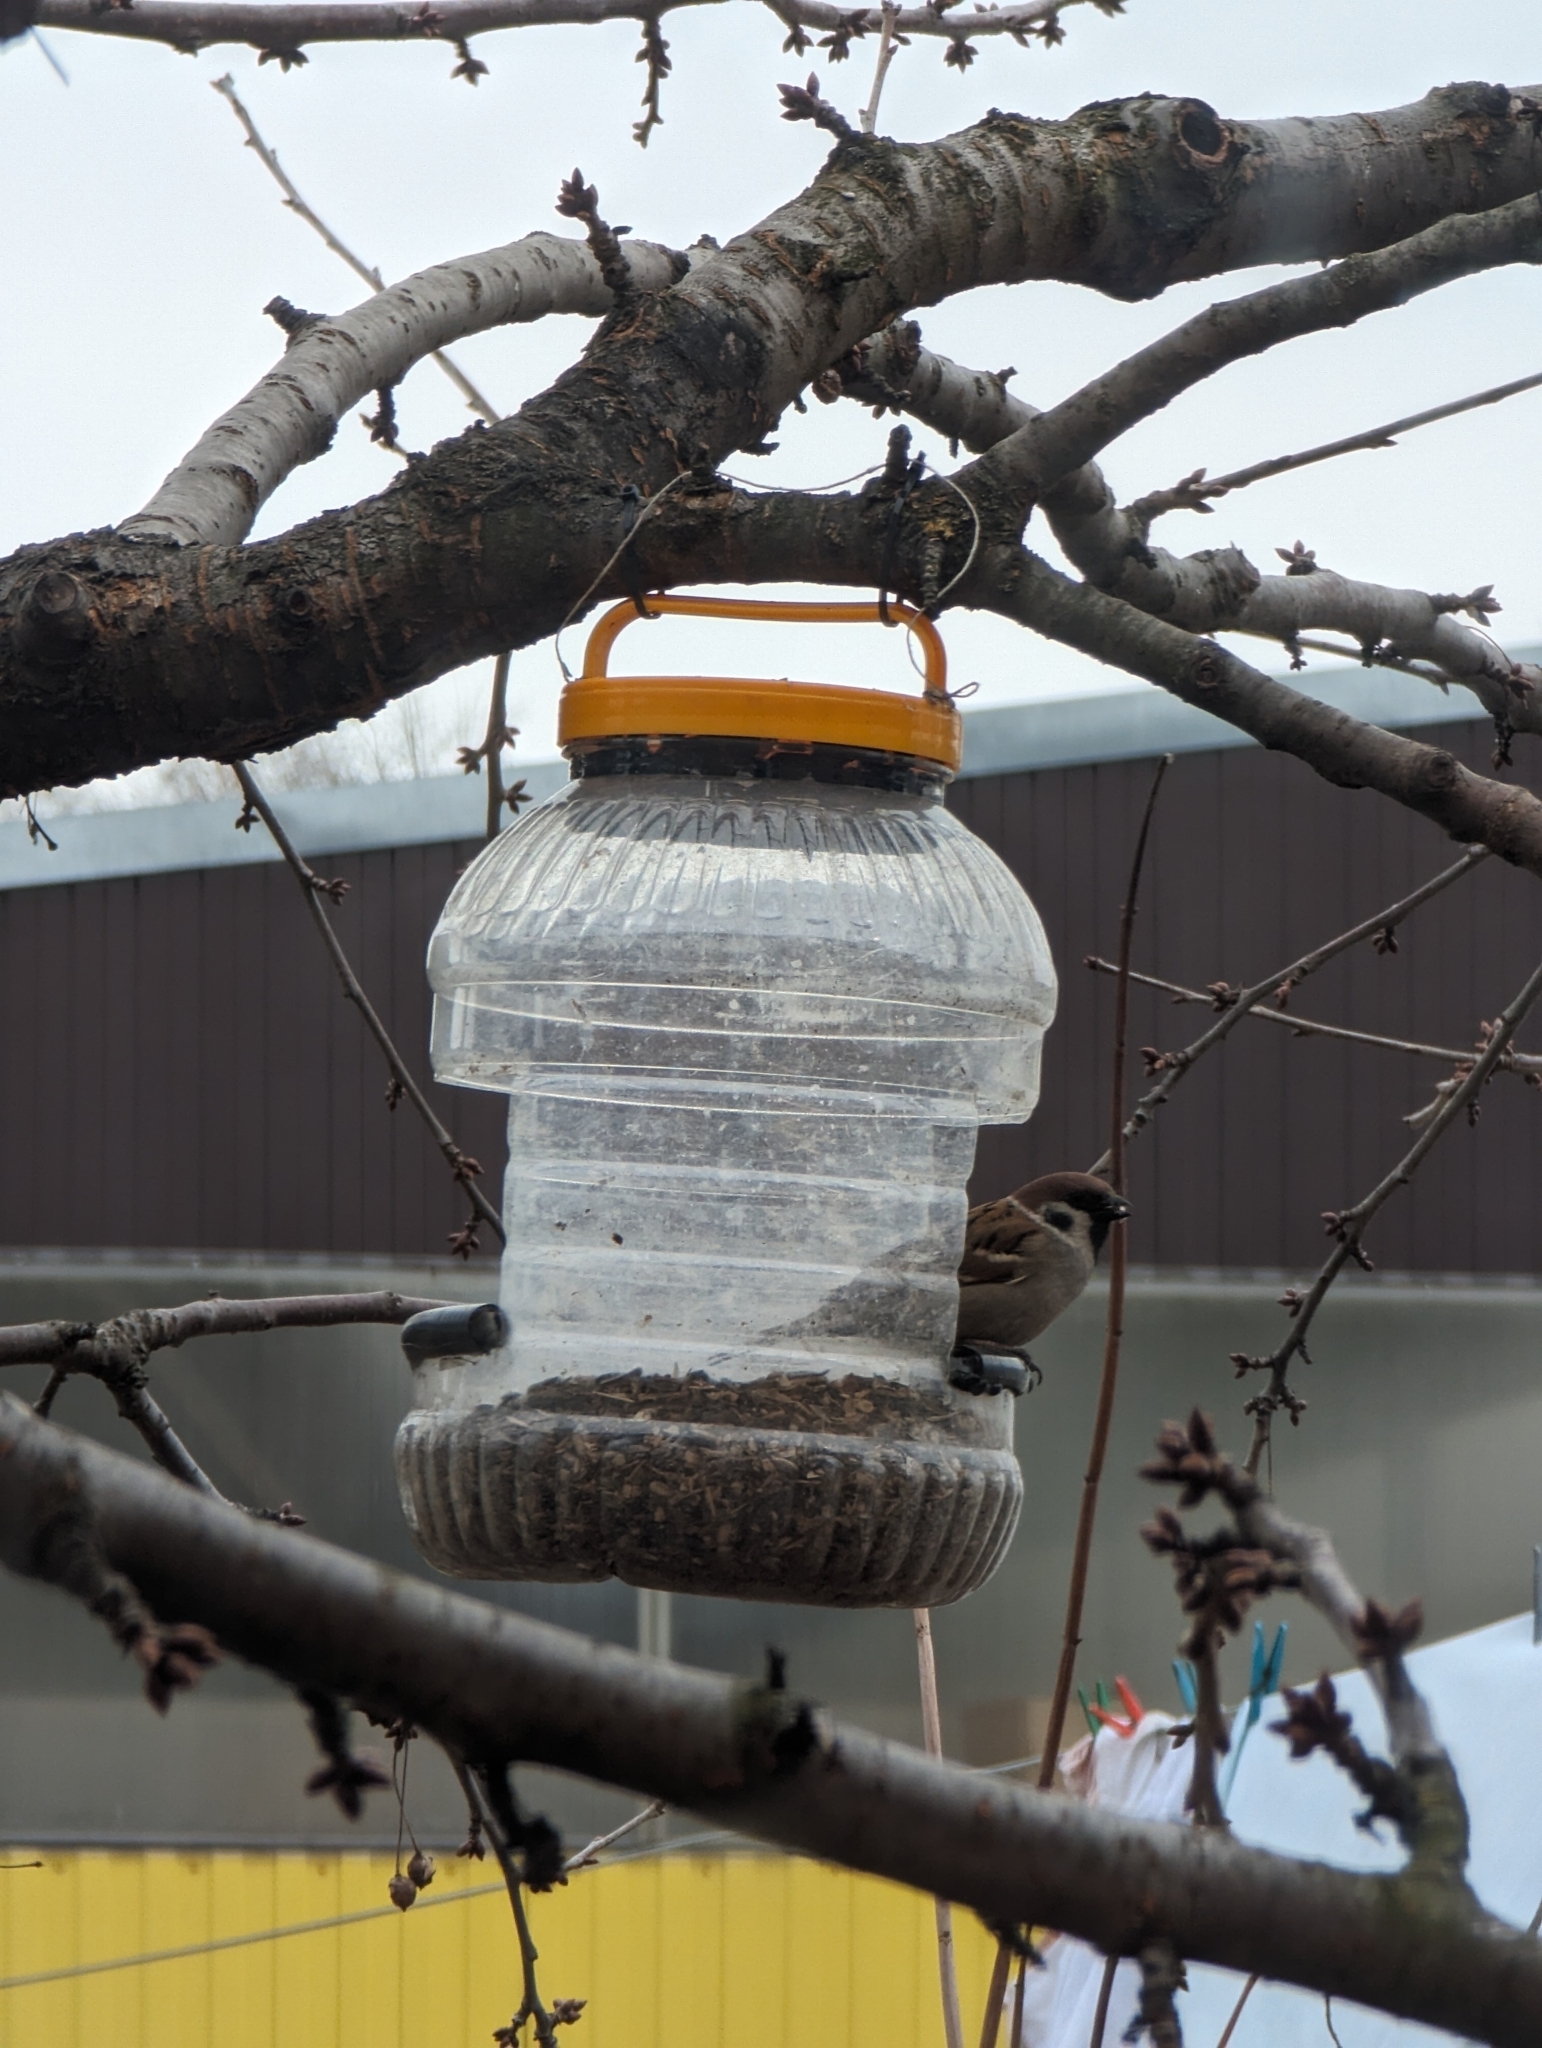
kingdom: Animalia
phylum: Chordata
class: Aves
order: Passeriformes
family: Passeridae
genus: Passer
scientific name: Passer montanus
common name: Eurasian tree sparrow
